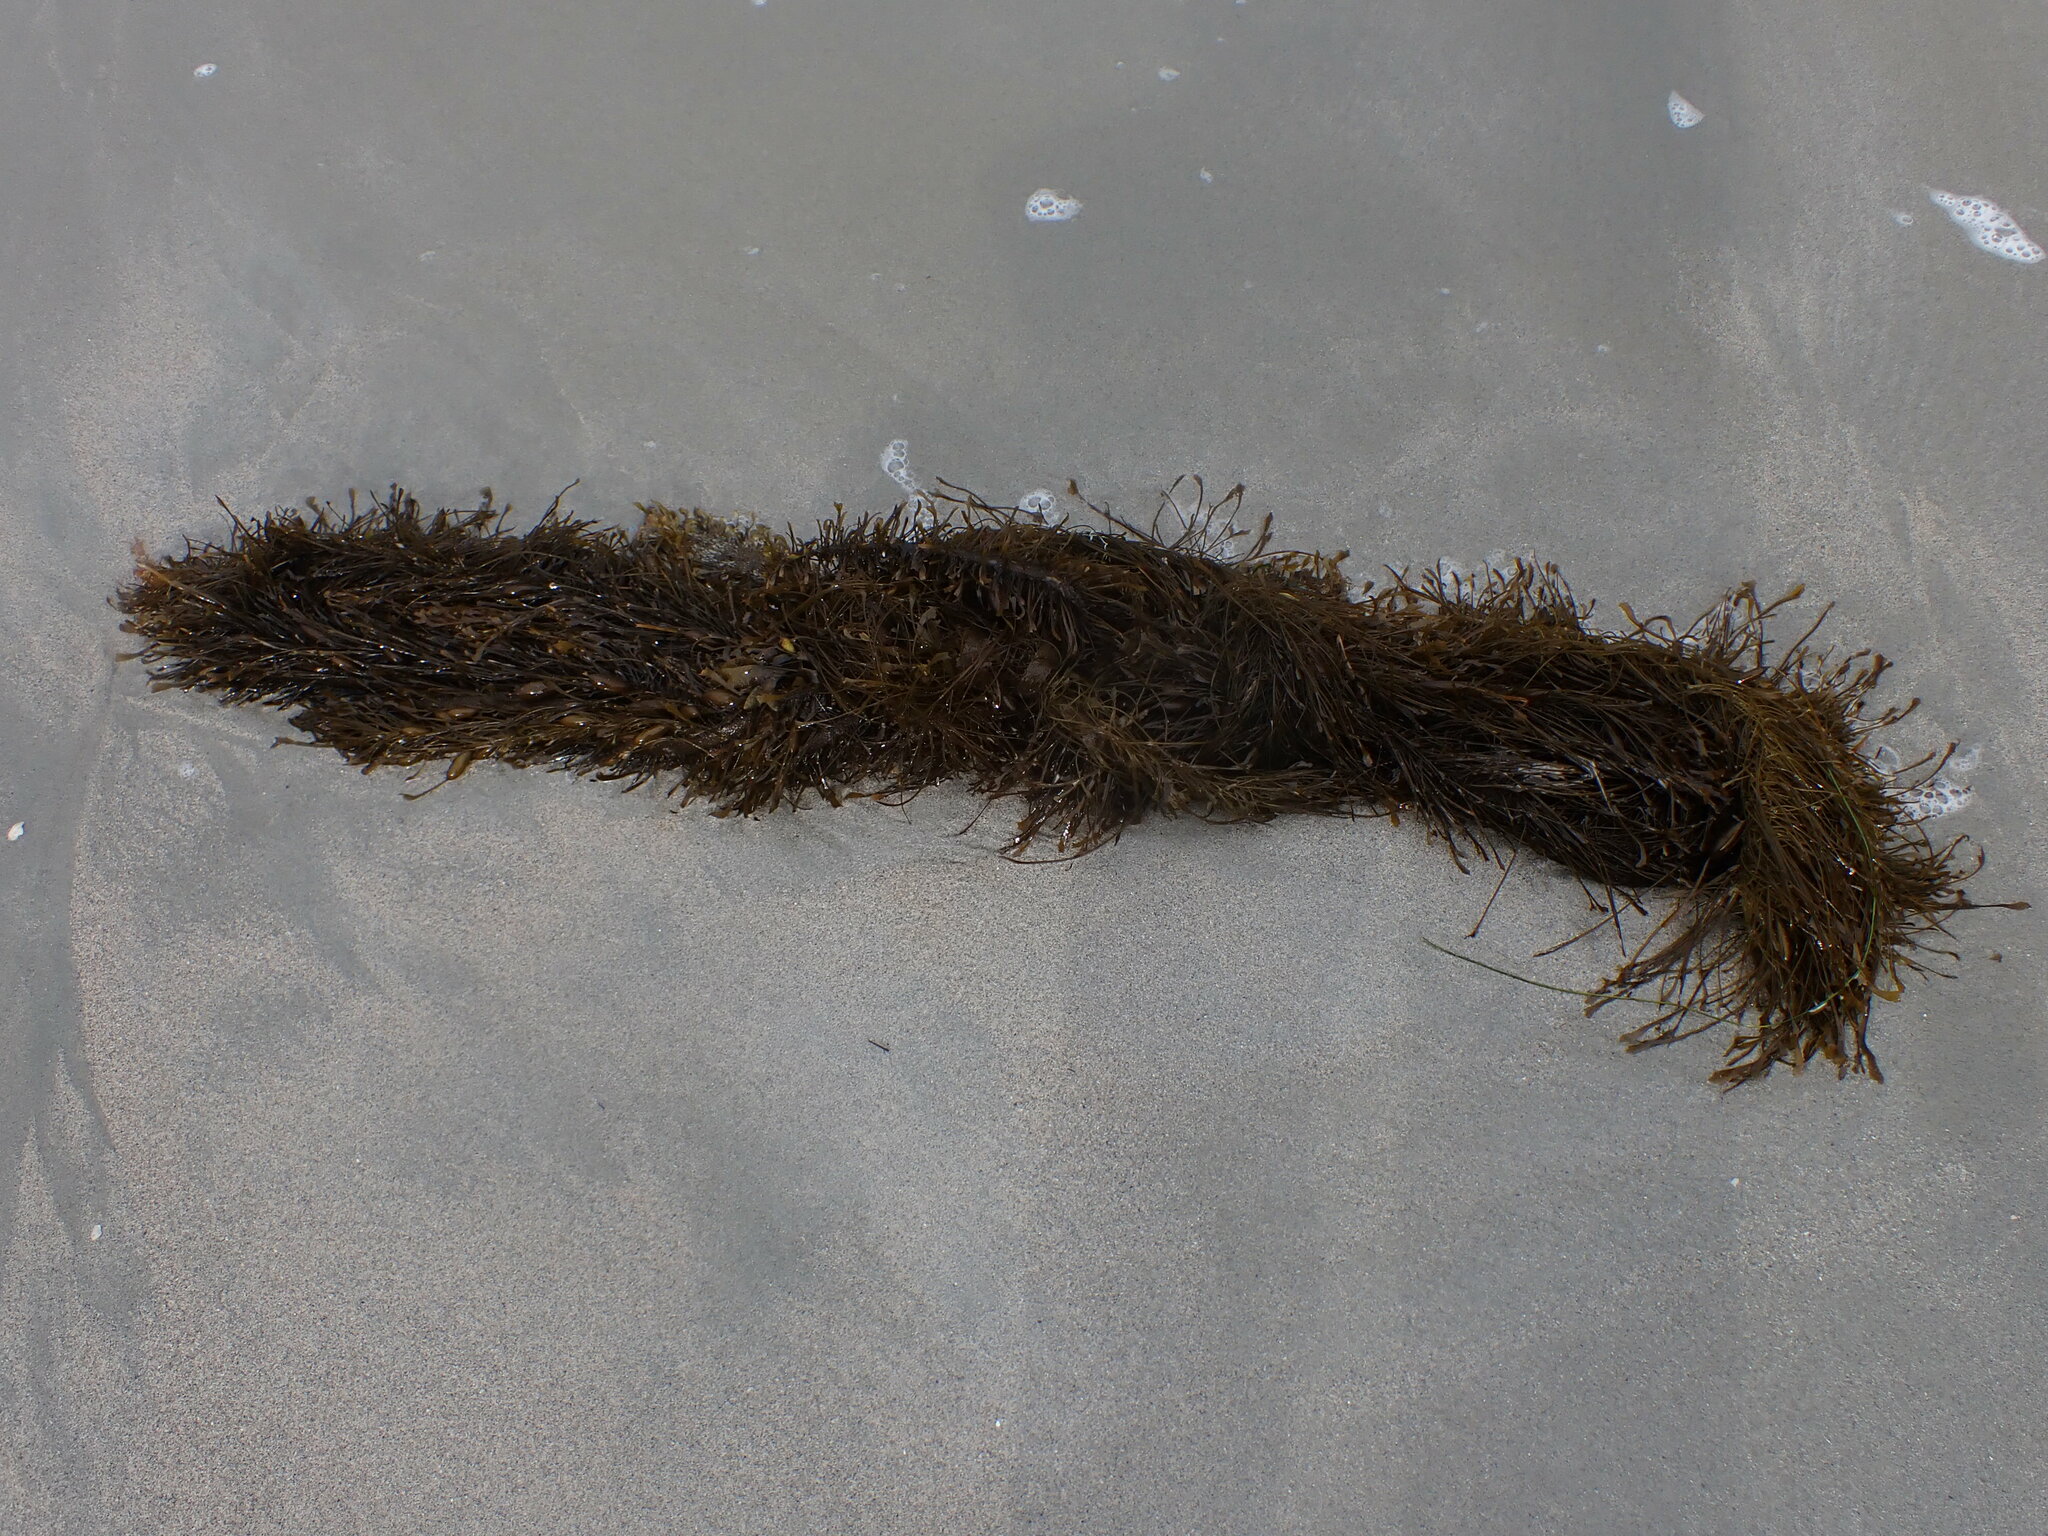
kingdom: Chromista
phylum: Ochrophyta
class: Phaeophyceae
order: Laminariales
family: Lessoniaceae
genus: Egregia
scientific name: Egregia menziesii
